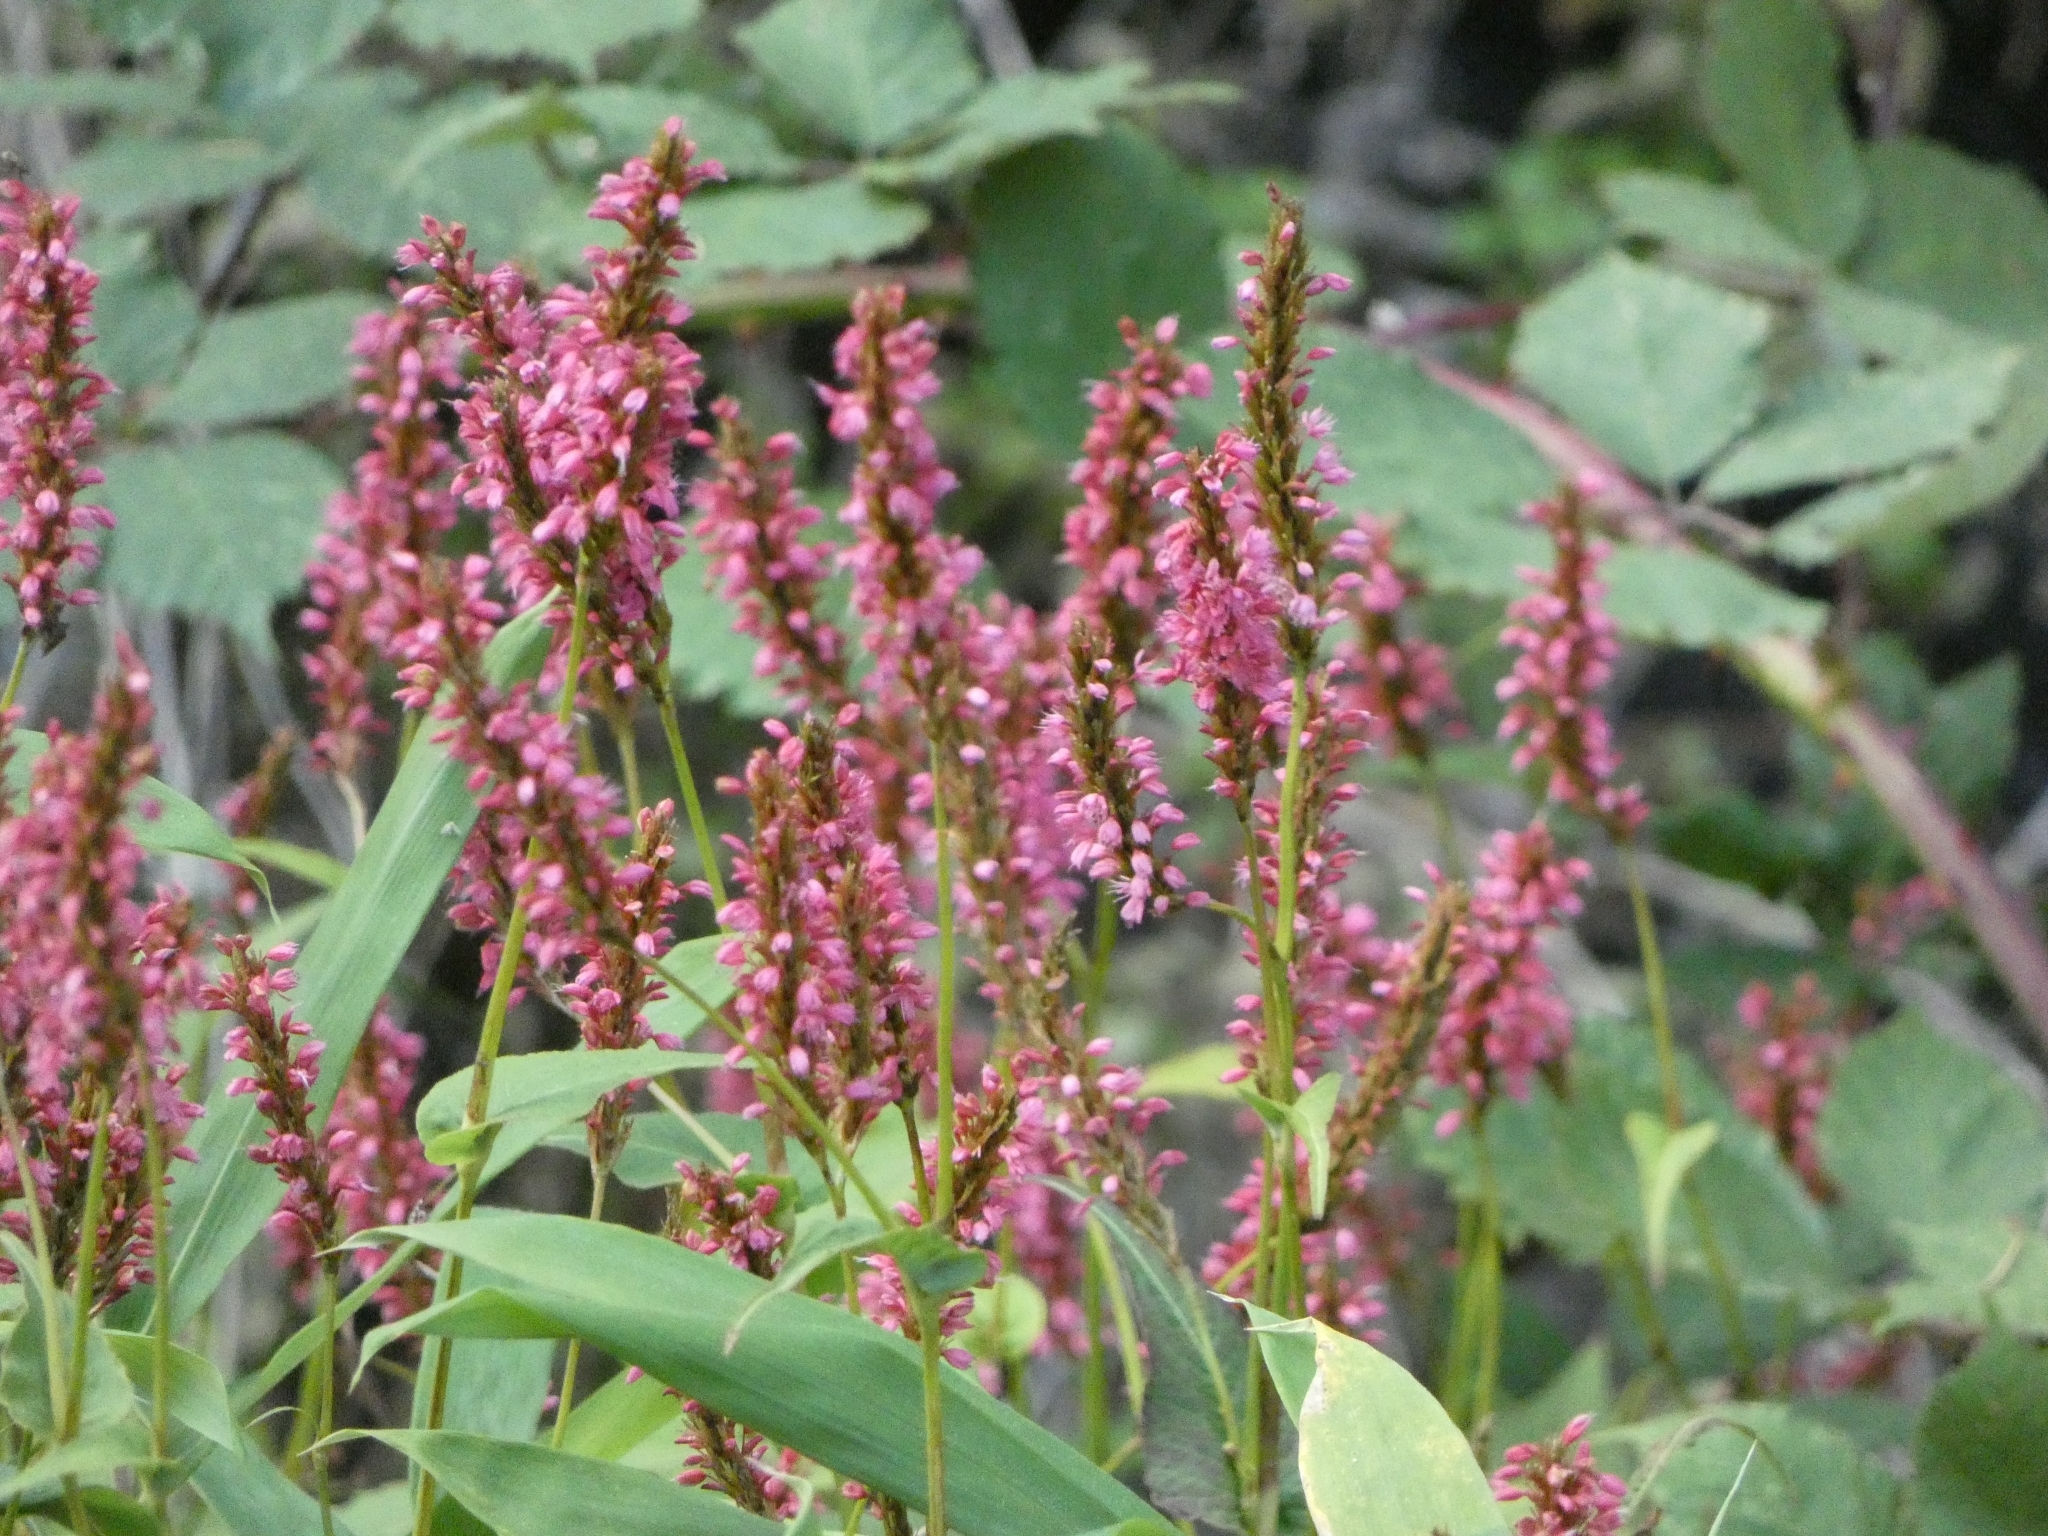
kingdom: Plantae
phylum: Tracheophyta
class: Magnoliopsida
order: Caryophyllales
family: Polygonaceae
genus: Bistorta
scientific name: Bistorta amplexicaulis
